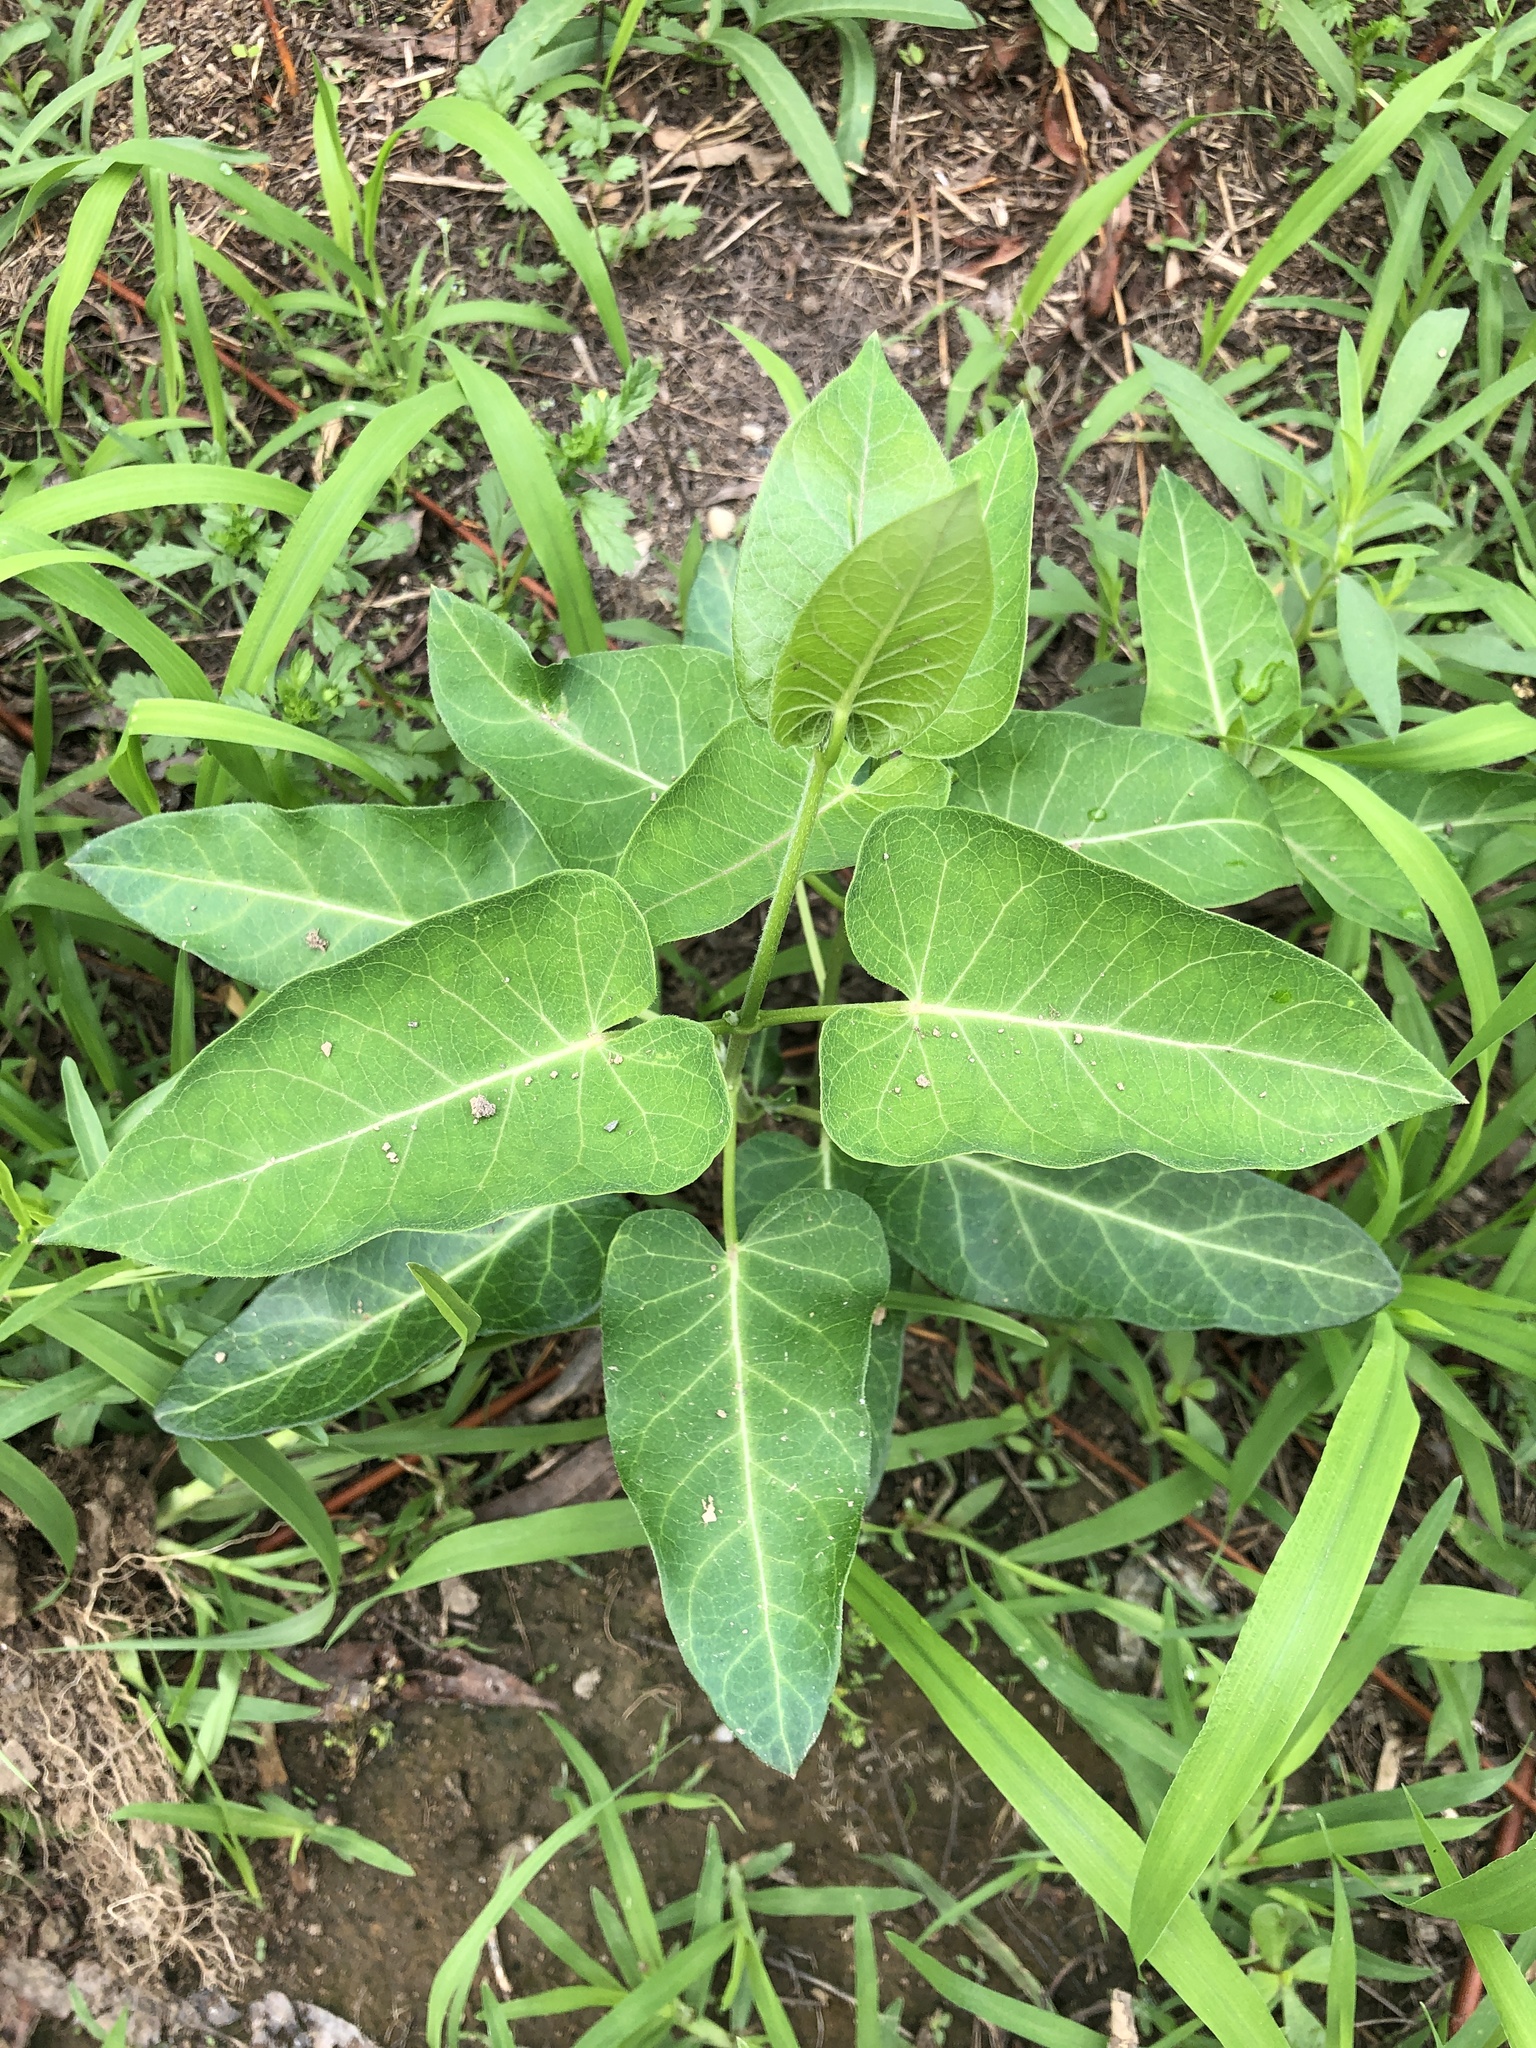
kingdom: Plantae
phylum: Tracheophyta
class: Magnoliopsida
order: Gentianales
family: Apocynaceae
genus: Cynanchum
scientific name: Cynanchum rostellatum
